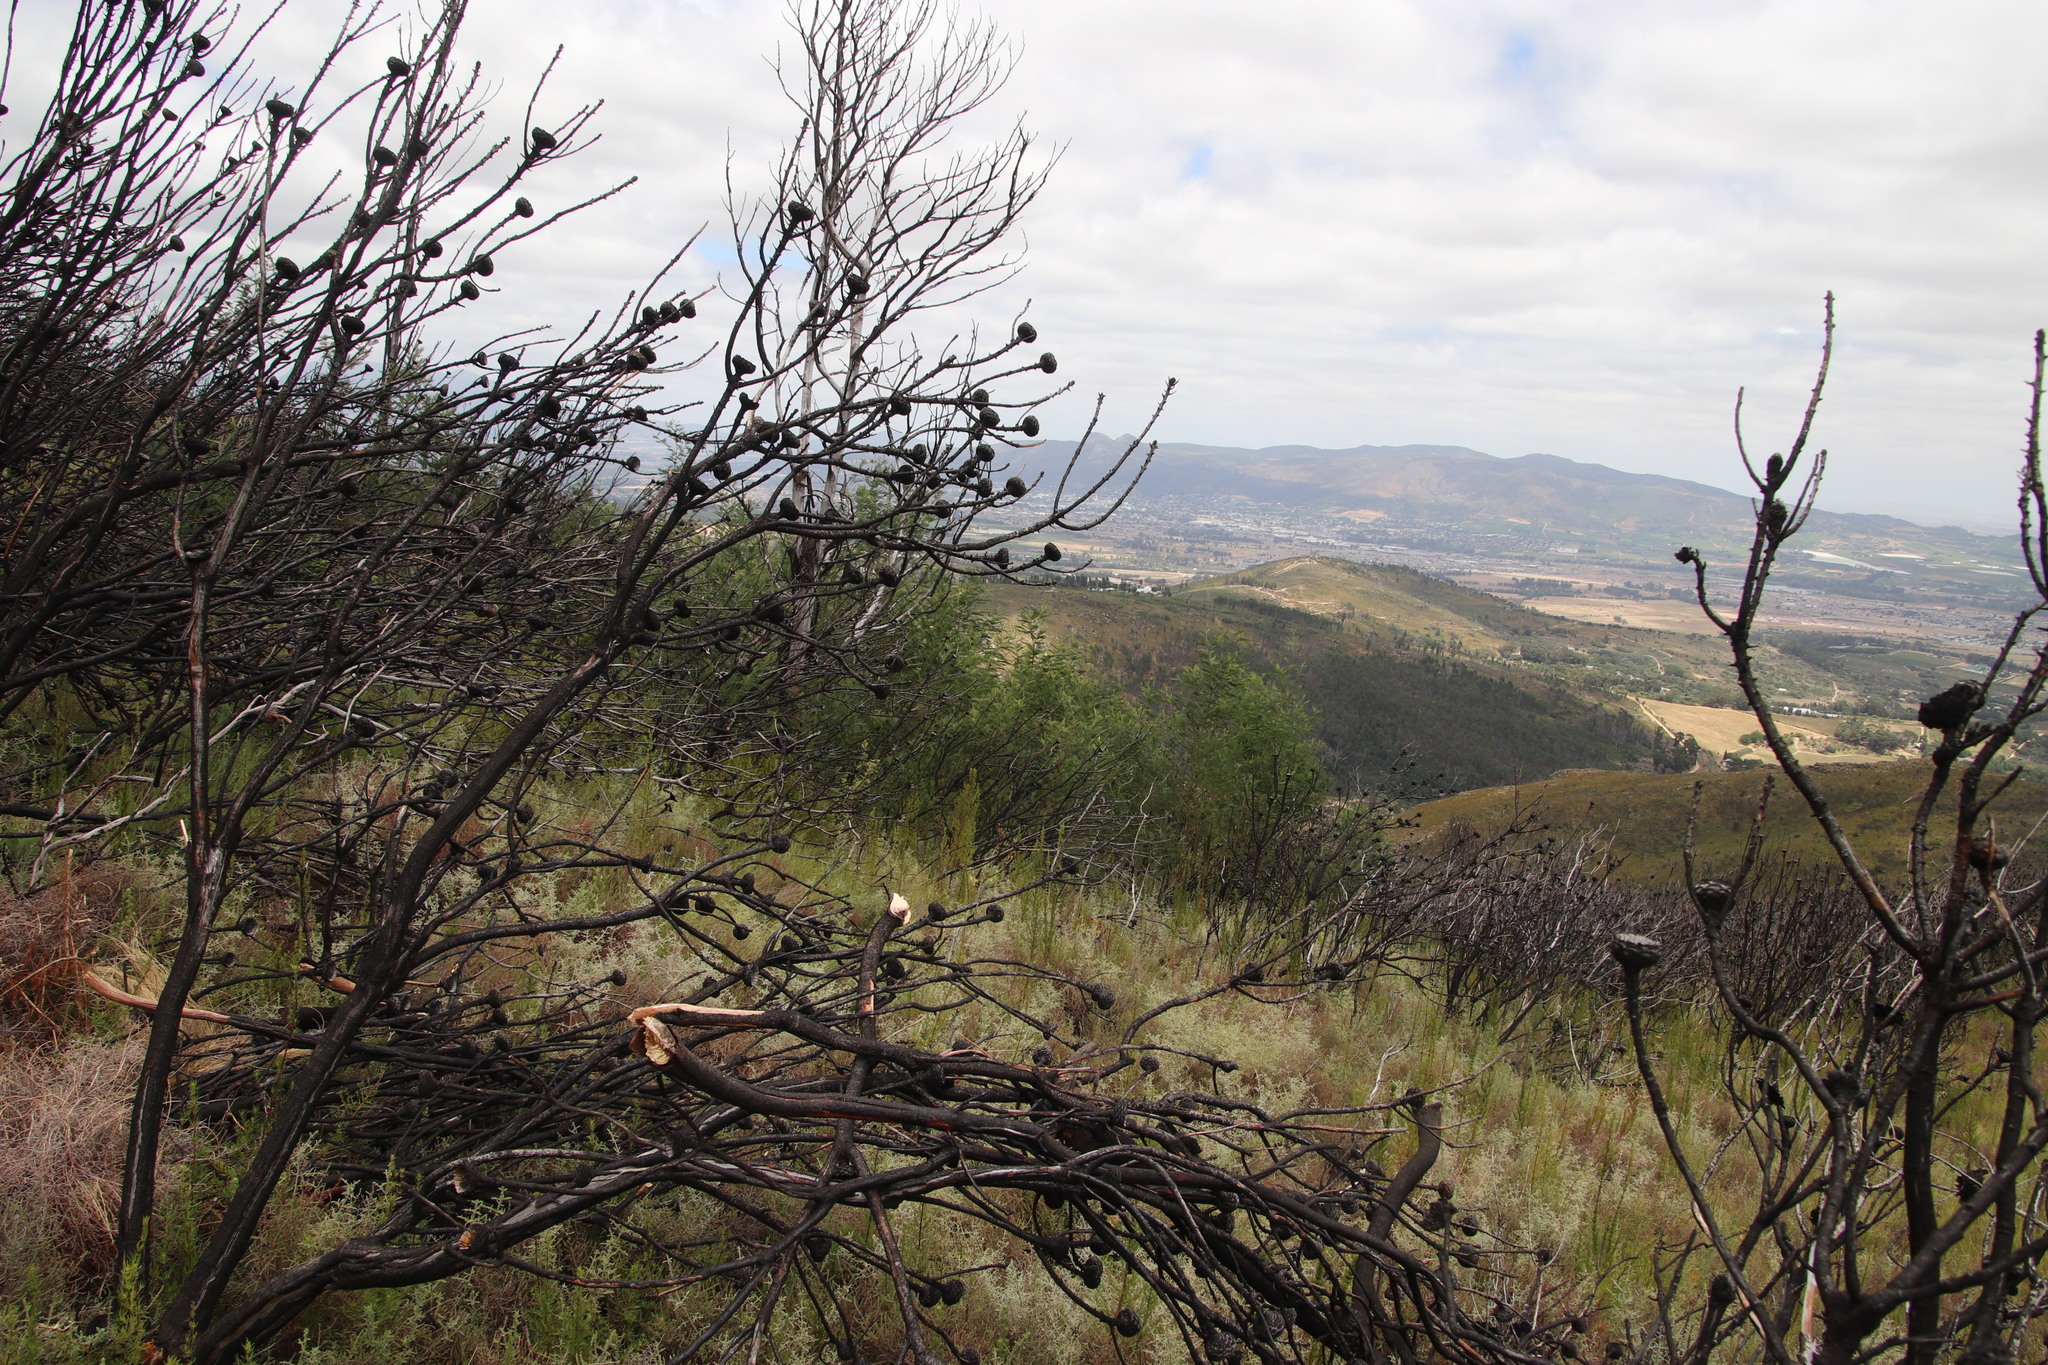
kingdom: Plantae
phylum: Tracheophyta
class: Magnoliopsida
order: Fabales
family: Fabaceae
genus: Acacia
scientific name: Acacia mearnsii
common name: Black wattle
